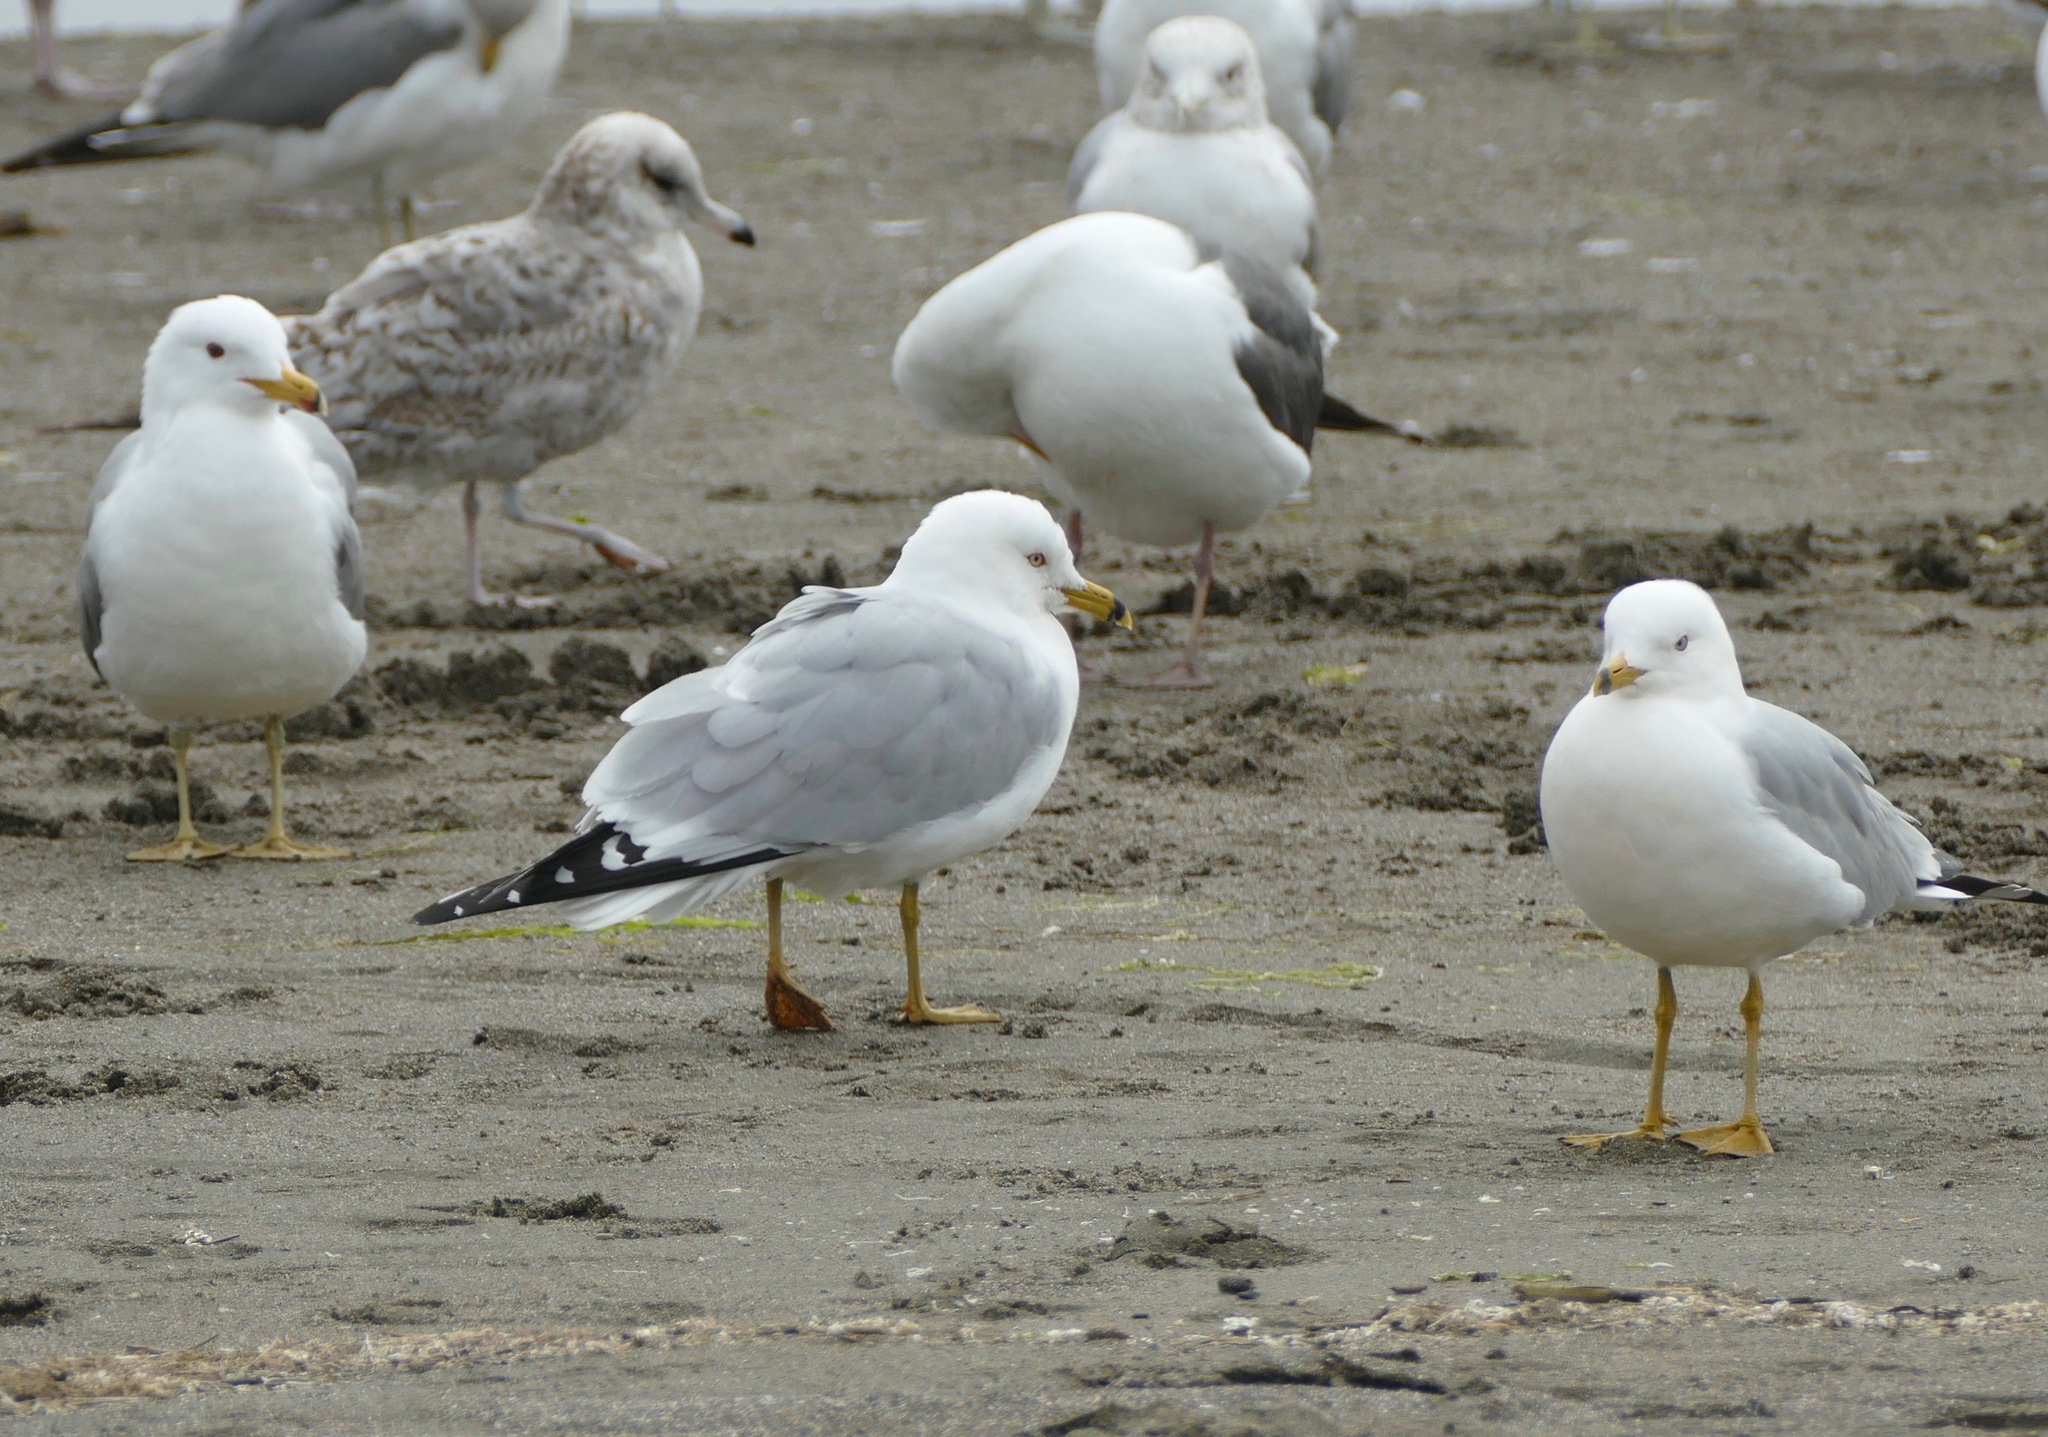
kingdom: Animalia
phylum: Chordata
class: Aves
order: Charadriiformes
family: Laridae
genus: Larus
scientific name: Larus delawarensis
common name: Ring-billed gull
